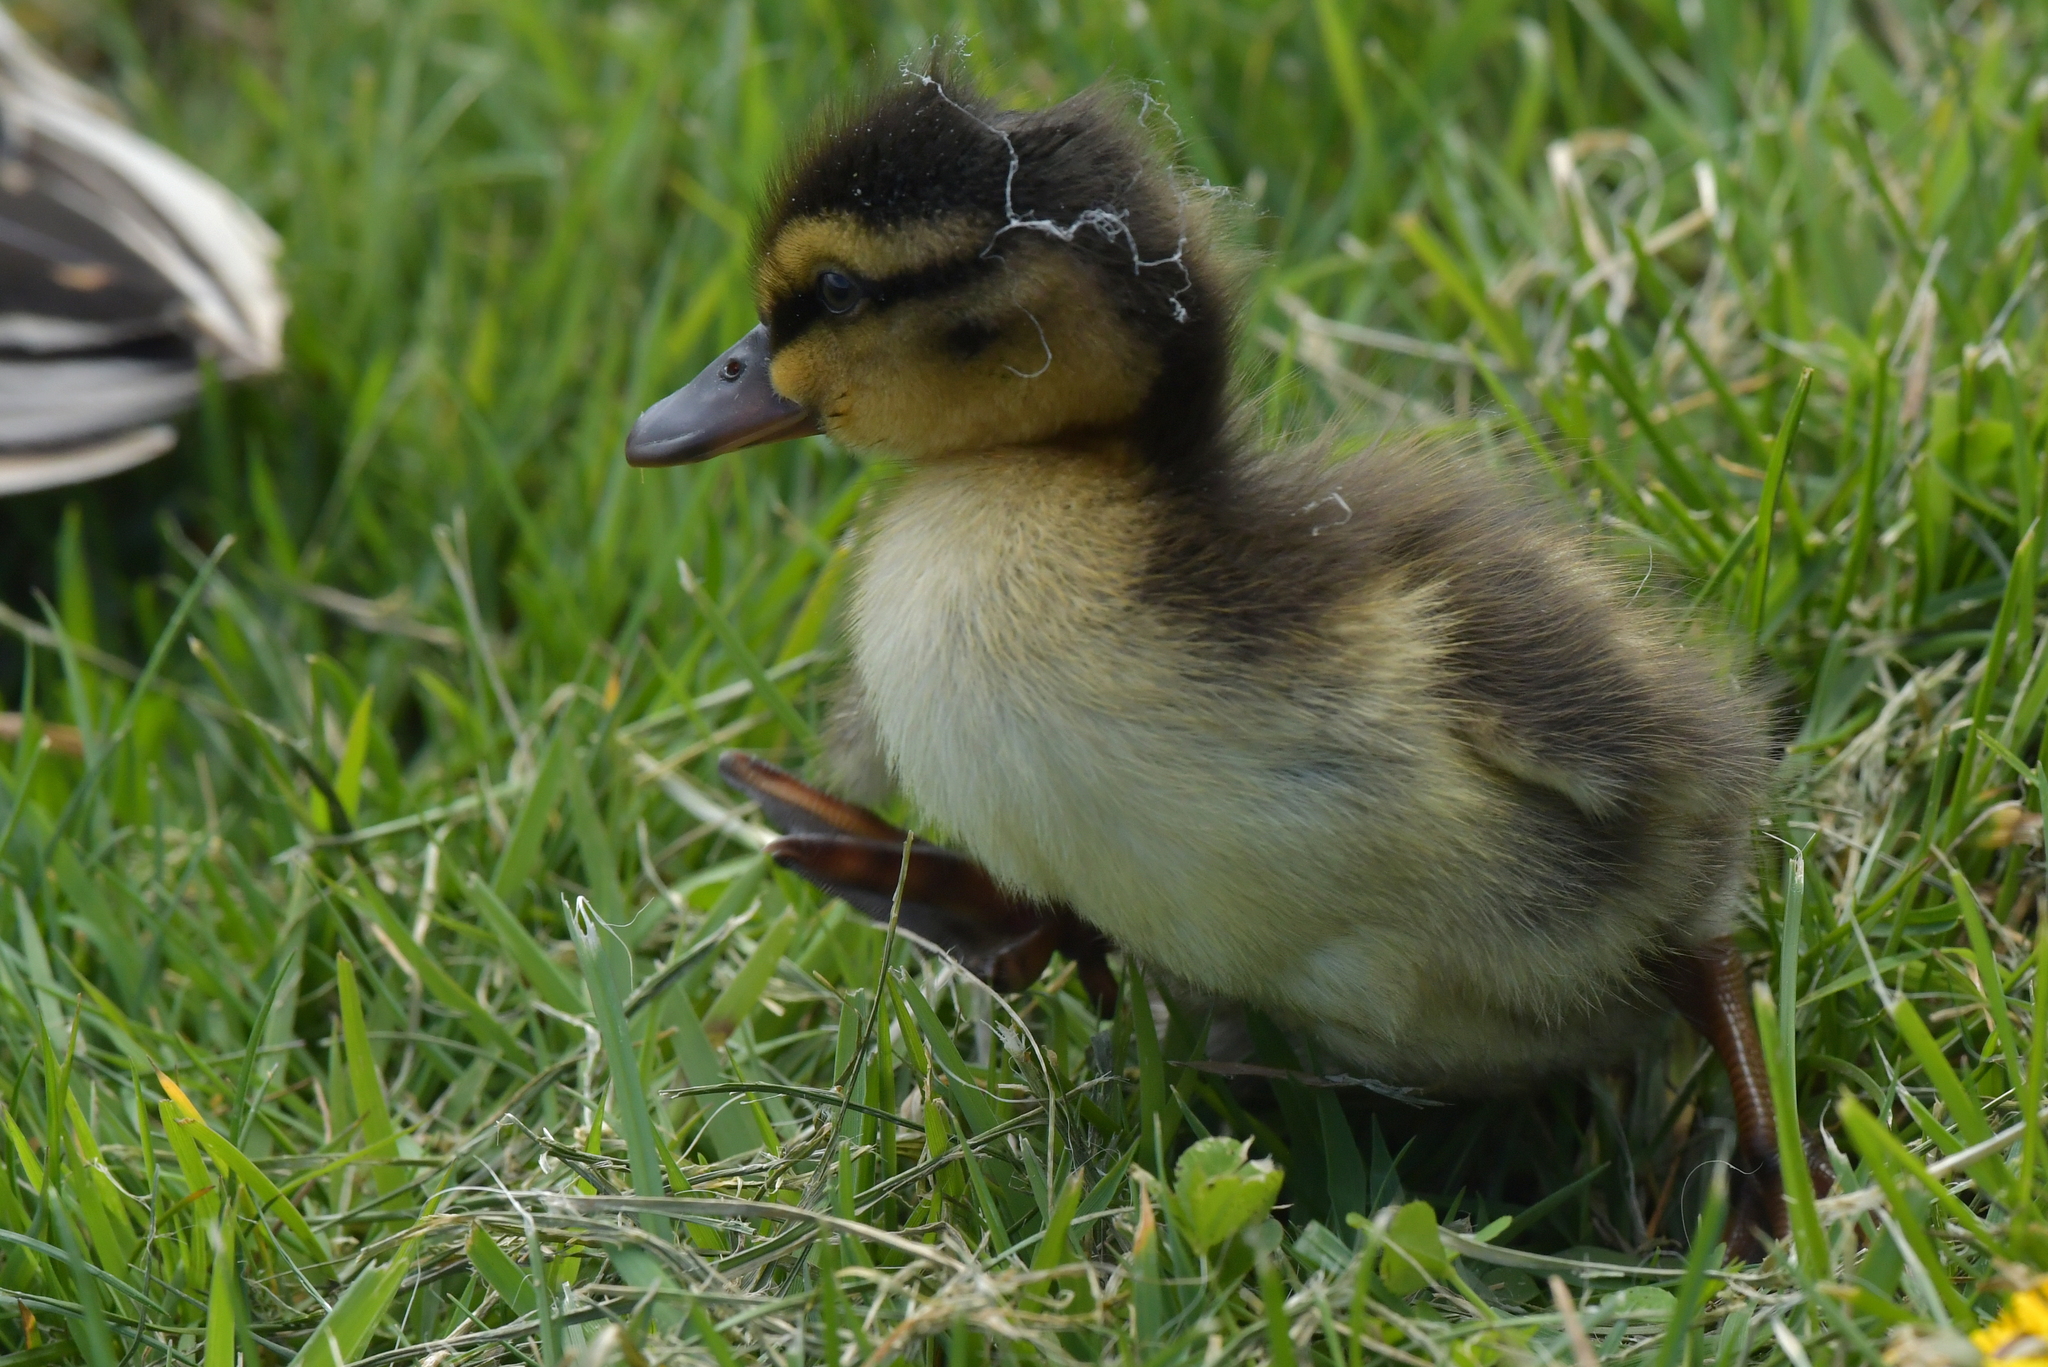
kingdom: Animalia
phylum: Chordata
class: Aves
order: Anseriformes
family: Anatidae
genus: Anas
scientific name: Anas platyrhynchos
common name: Mallard
